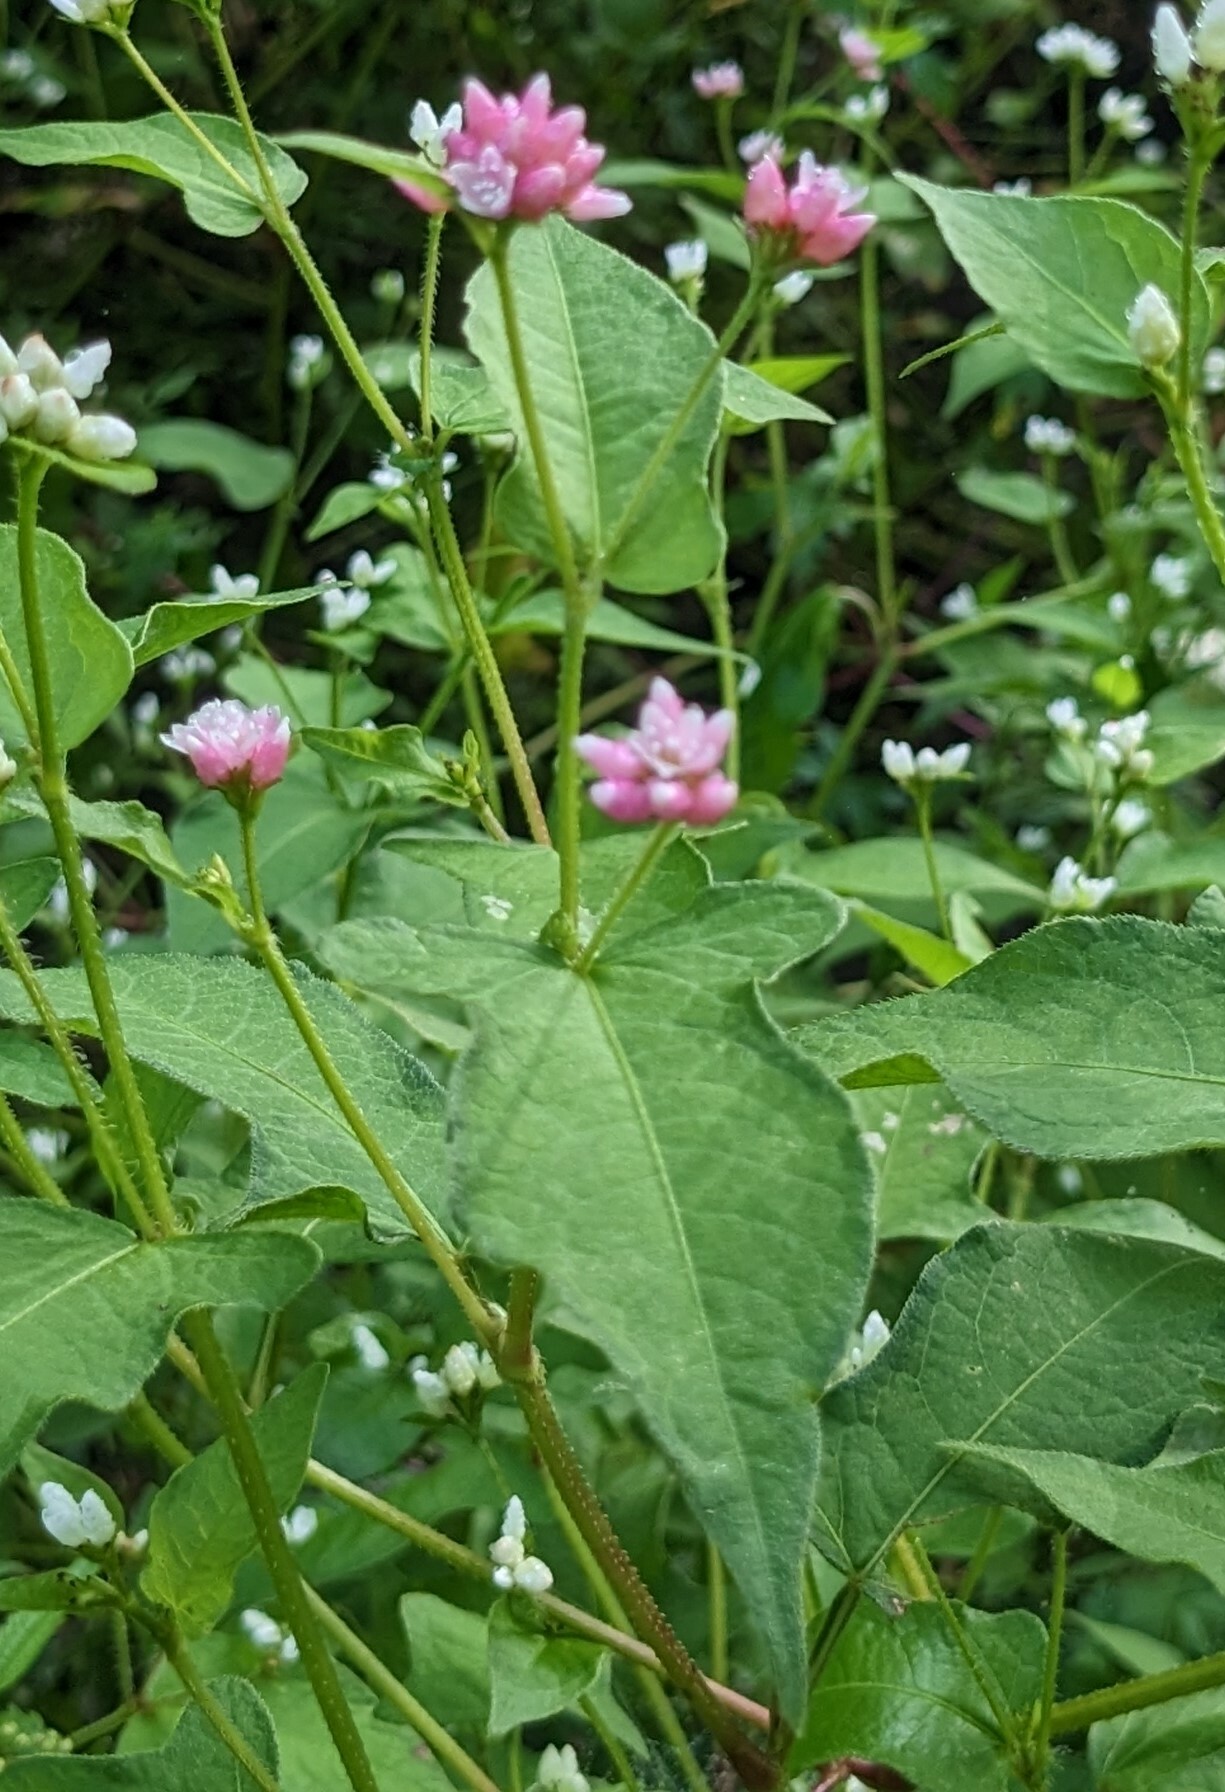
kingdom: Plantae
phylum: Tracheophyta
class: Magnoliopsida
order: Caryophyllales
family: Polygonaceae
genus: Persicaria
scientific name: Persicaria thunbergii
